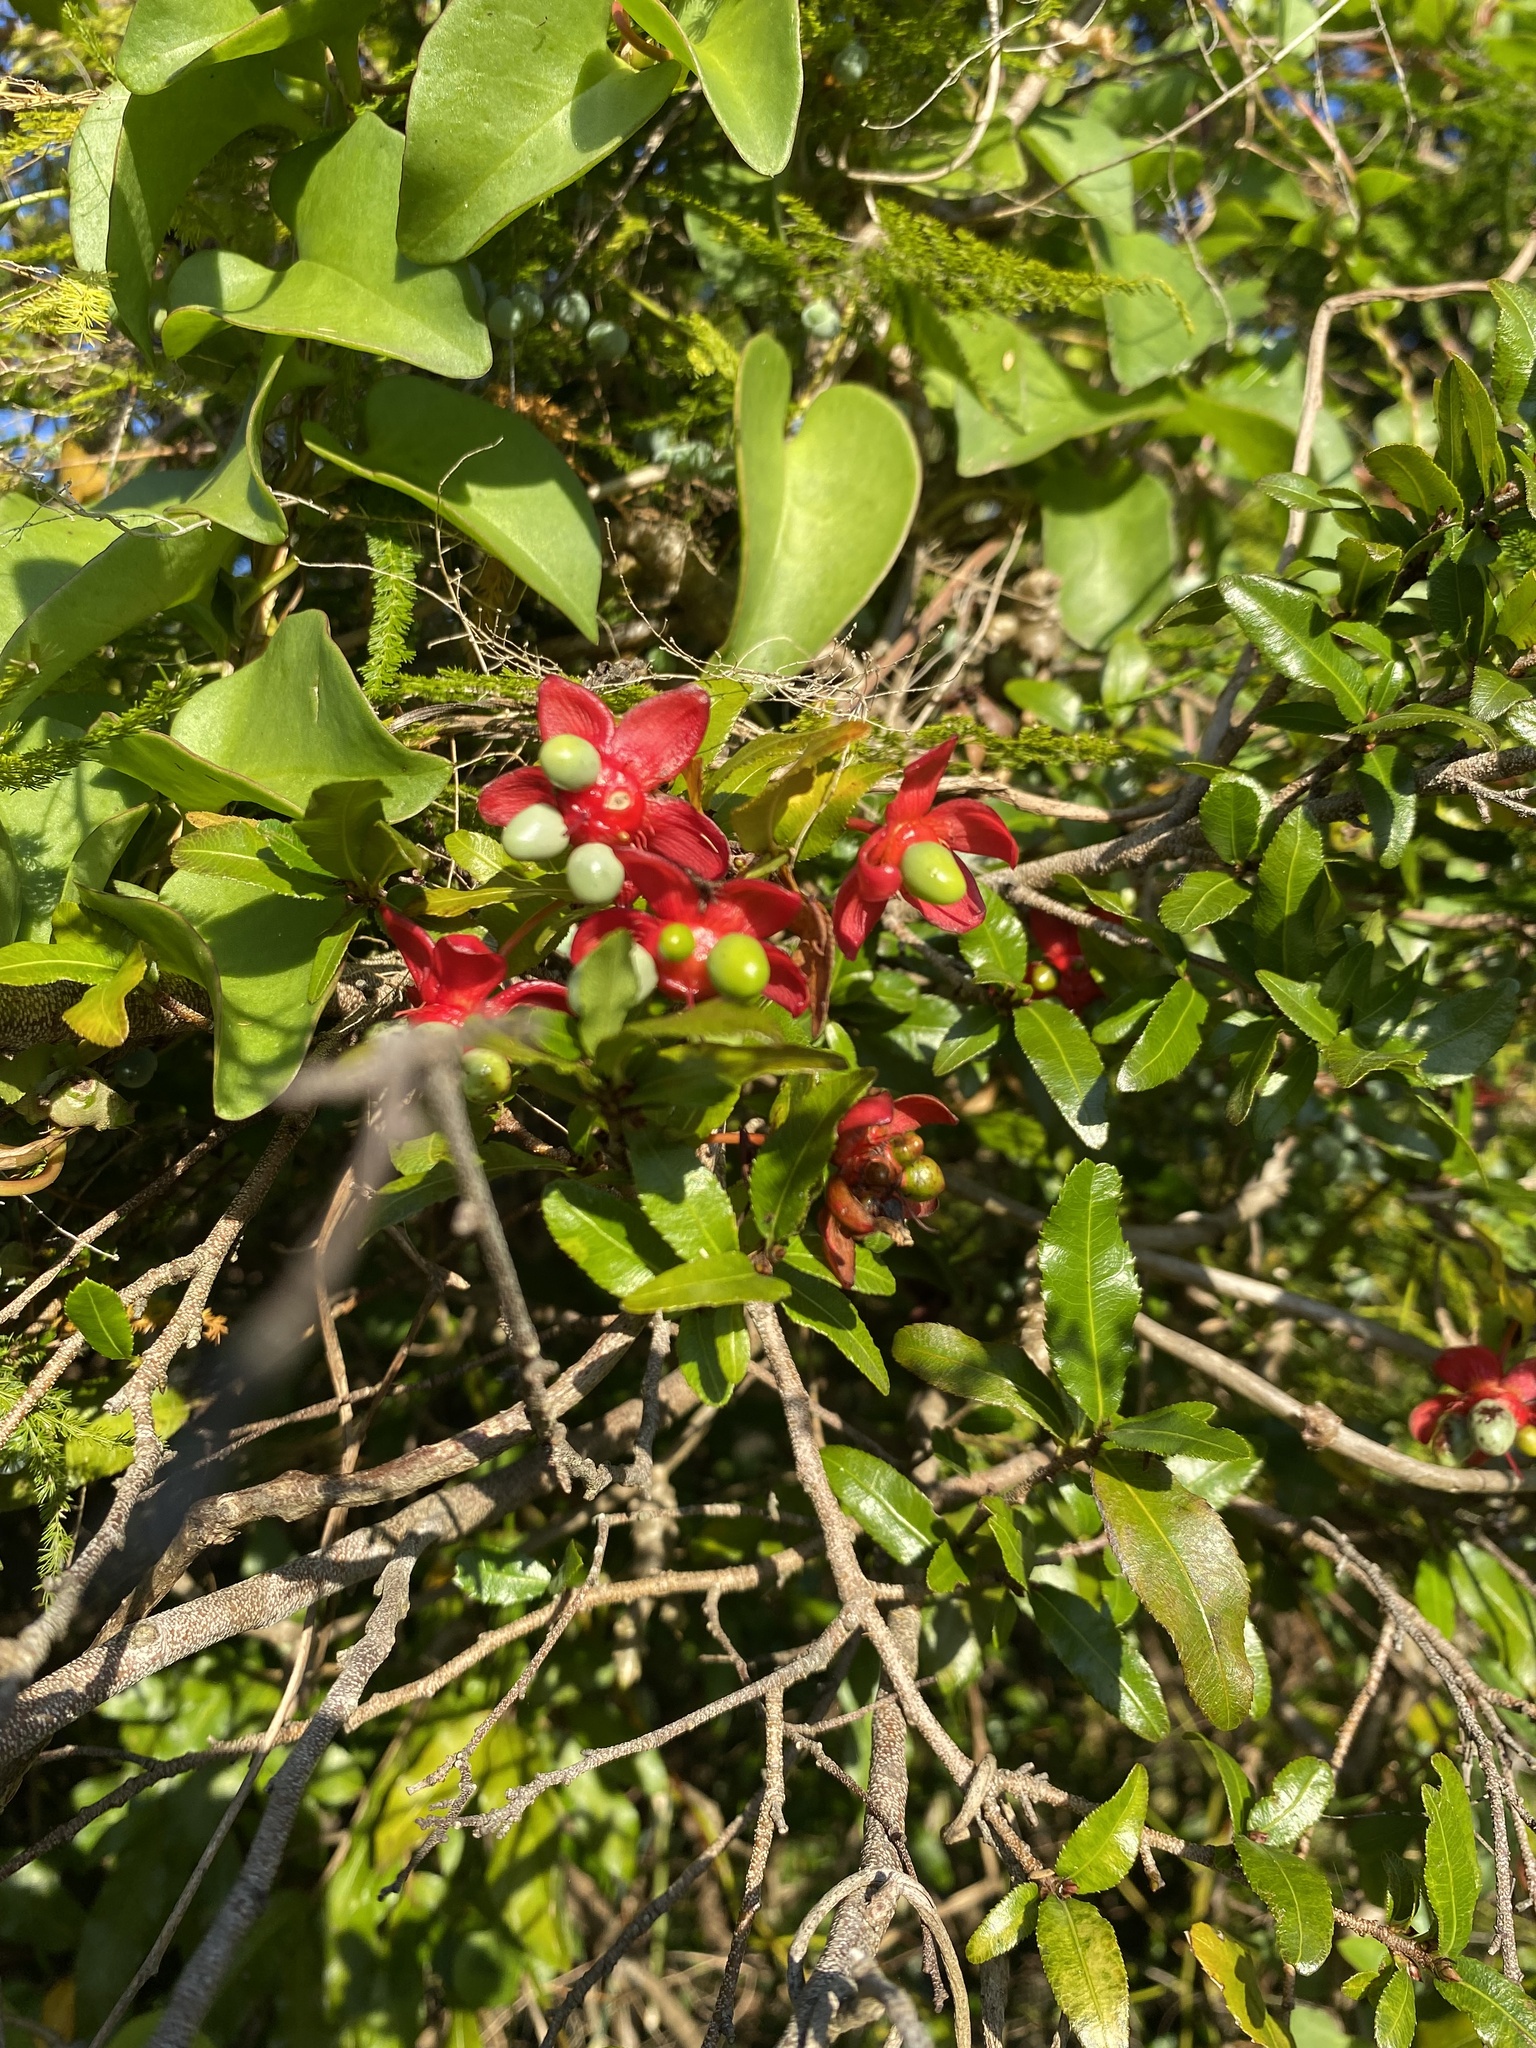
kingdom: Plantae
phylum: Tracheophyta
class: Magnoliopsida
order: Malpighiales
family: Ochnaceae
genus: Ochna
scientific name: Ochna serrulata
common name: Mickey mouse plant
